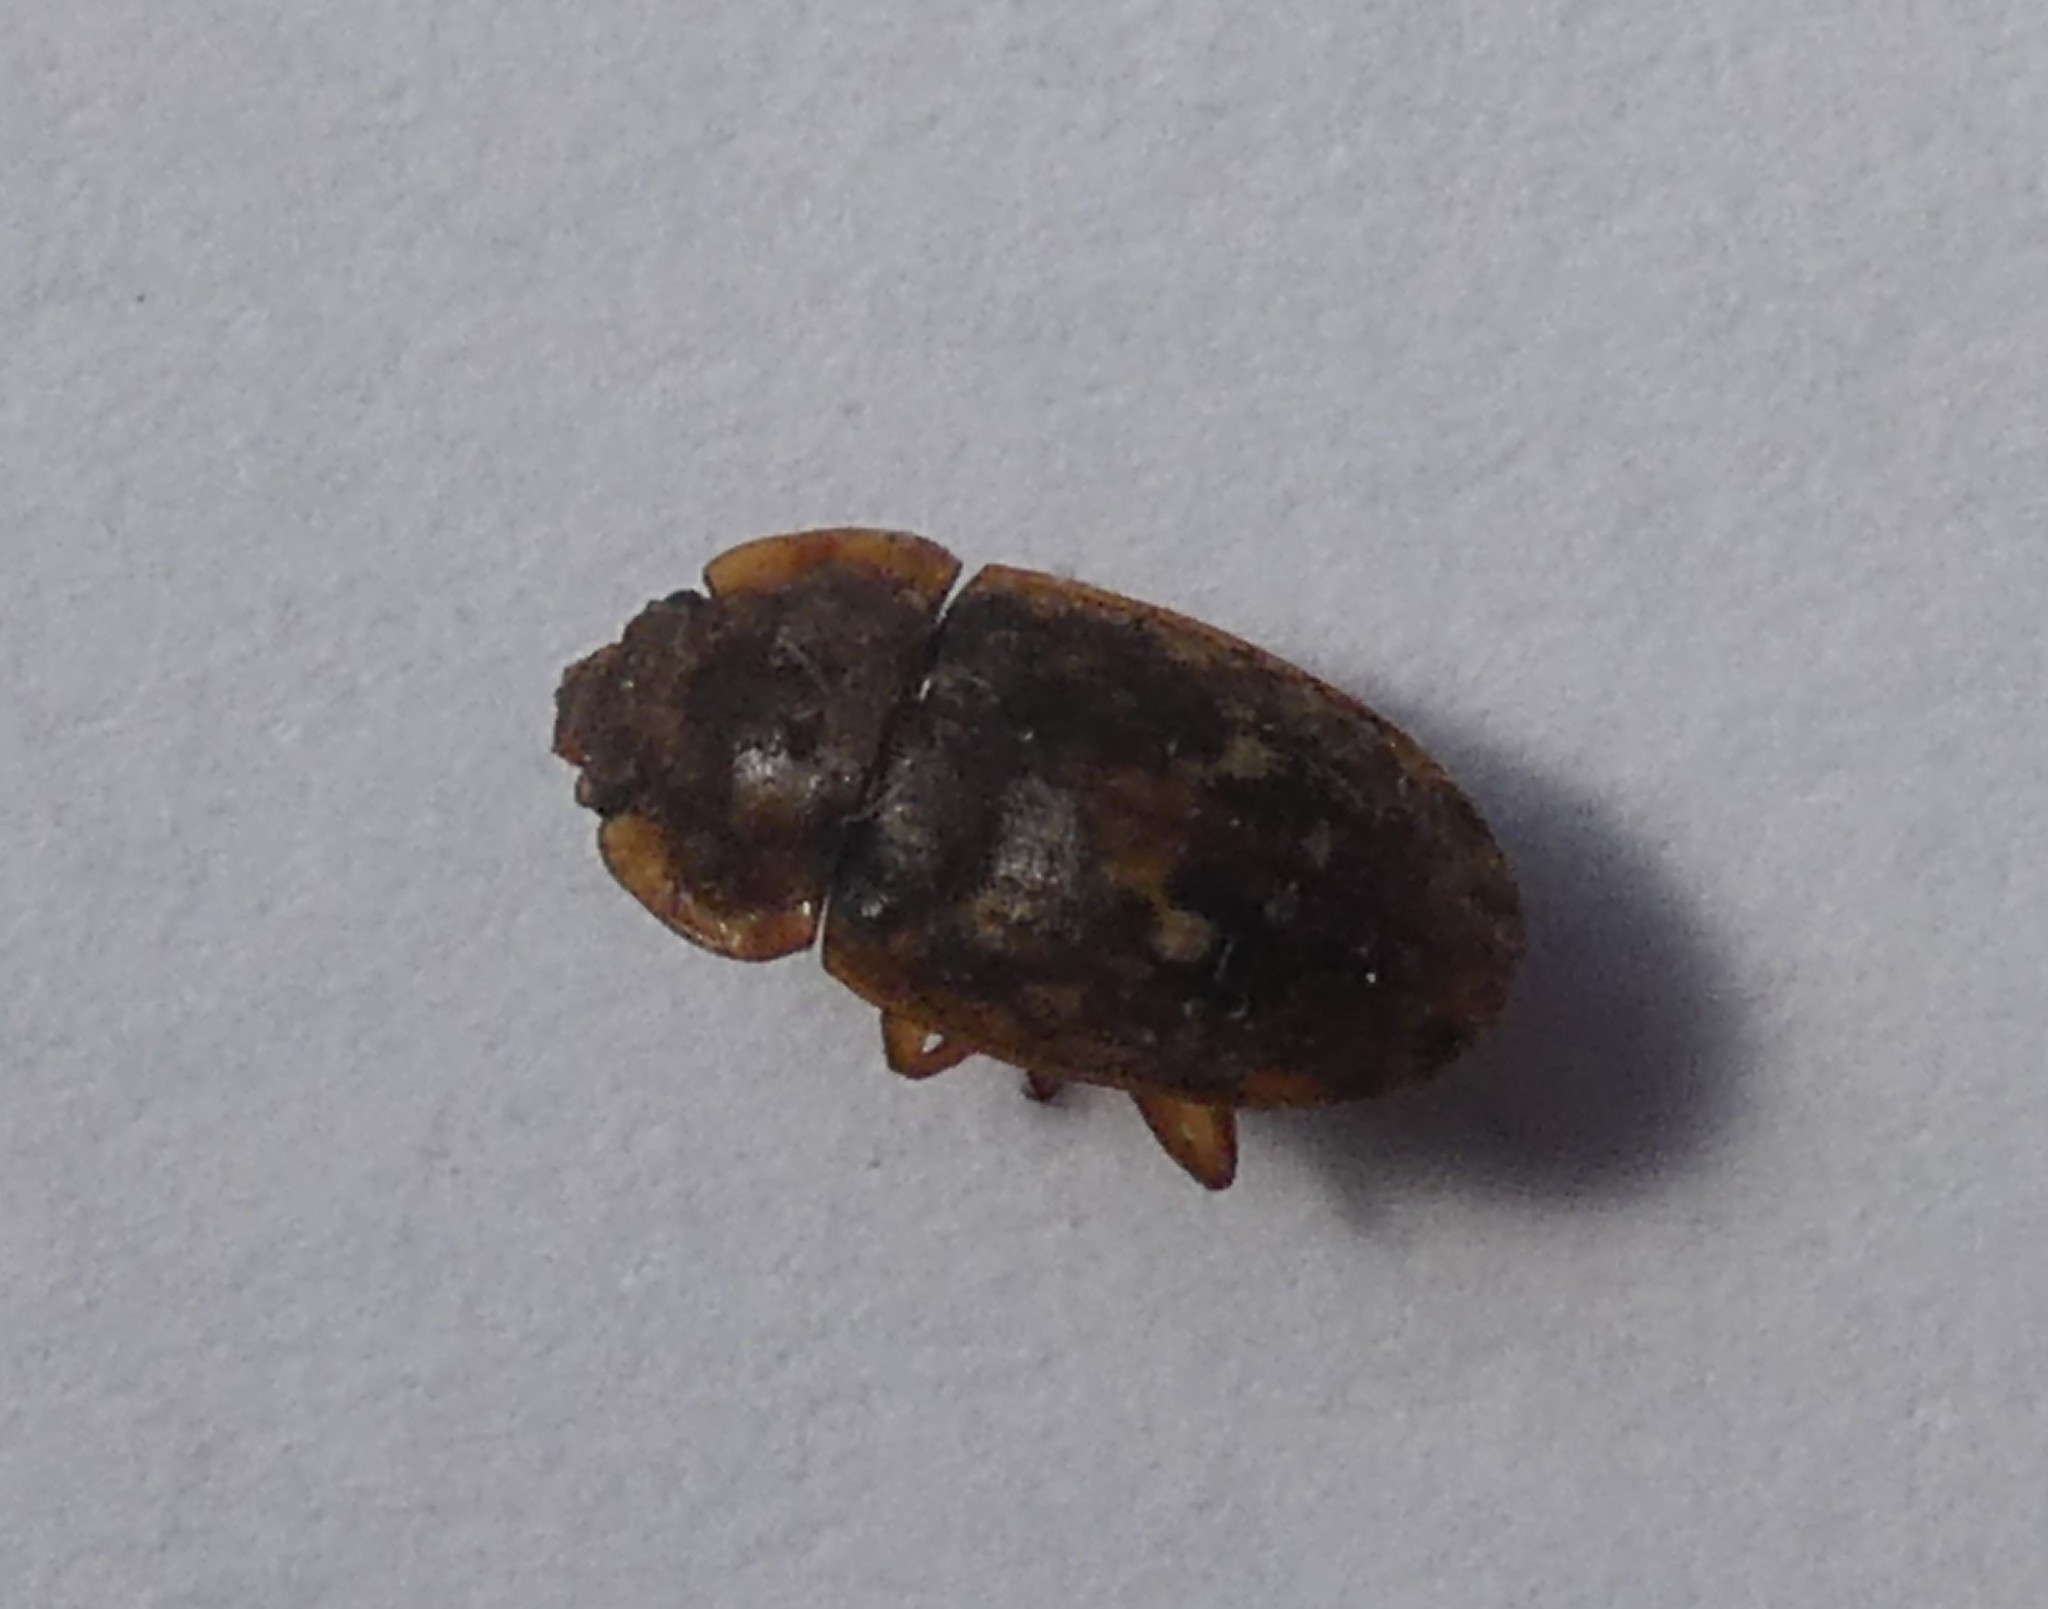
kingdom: Animalia
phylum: Arthropoda
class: Insecta
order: Coleoptera
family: Nitidulidae
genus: Soronia
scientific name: Soronia
